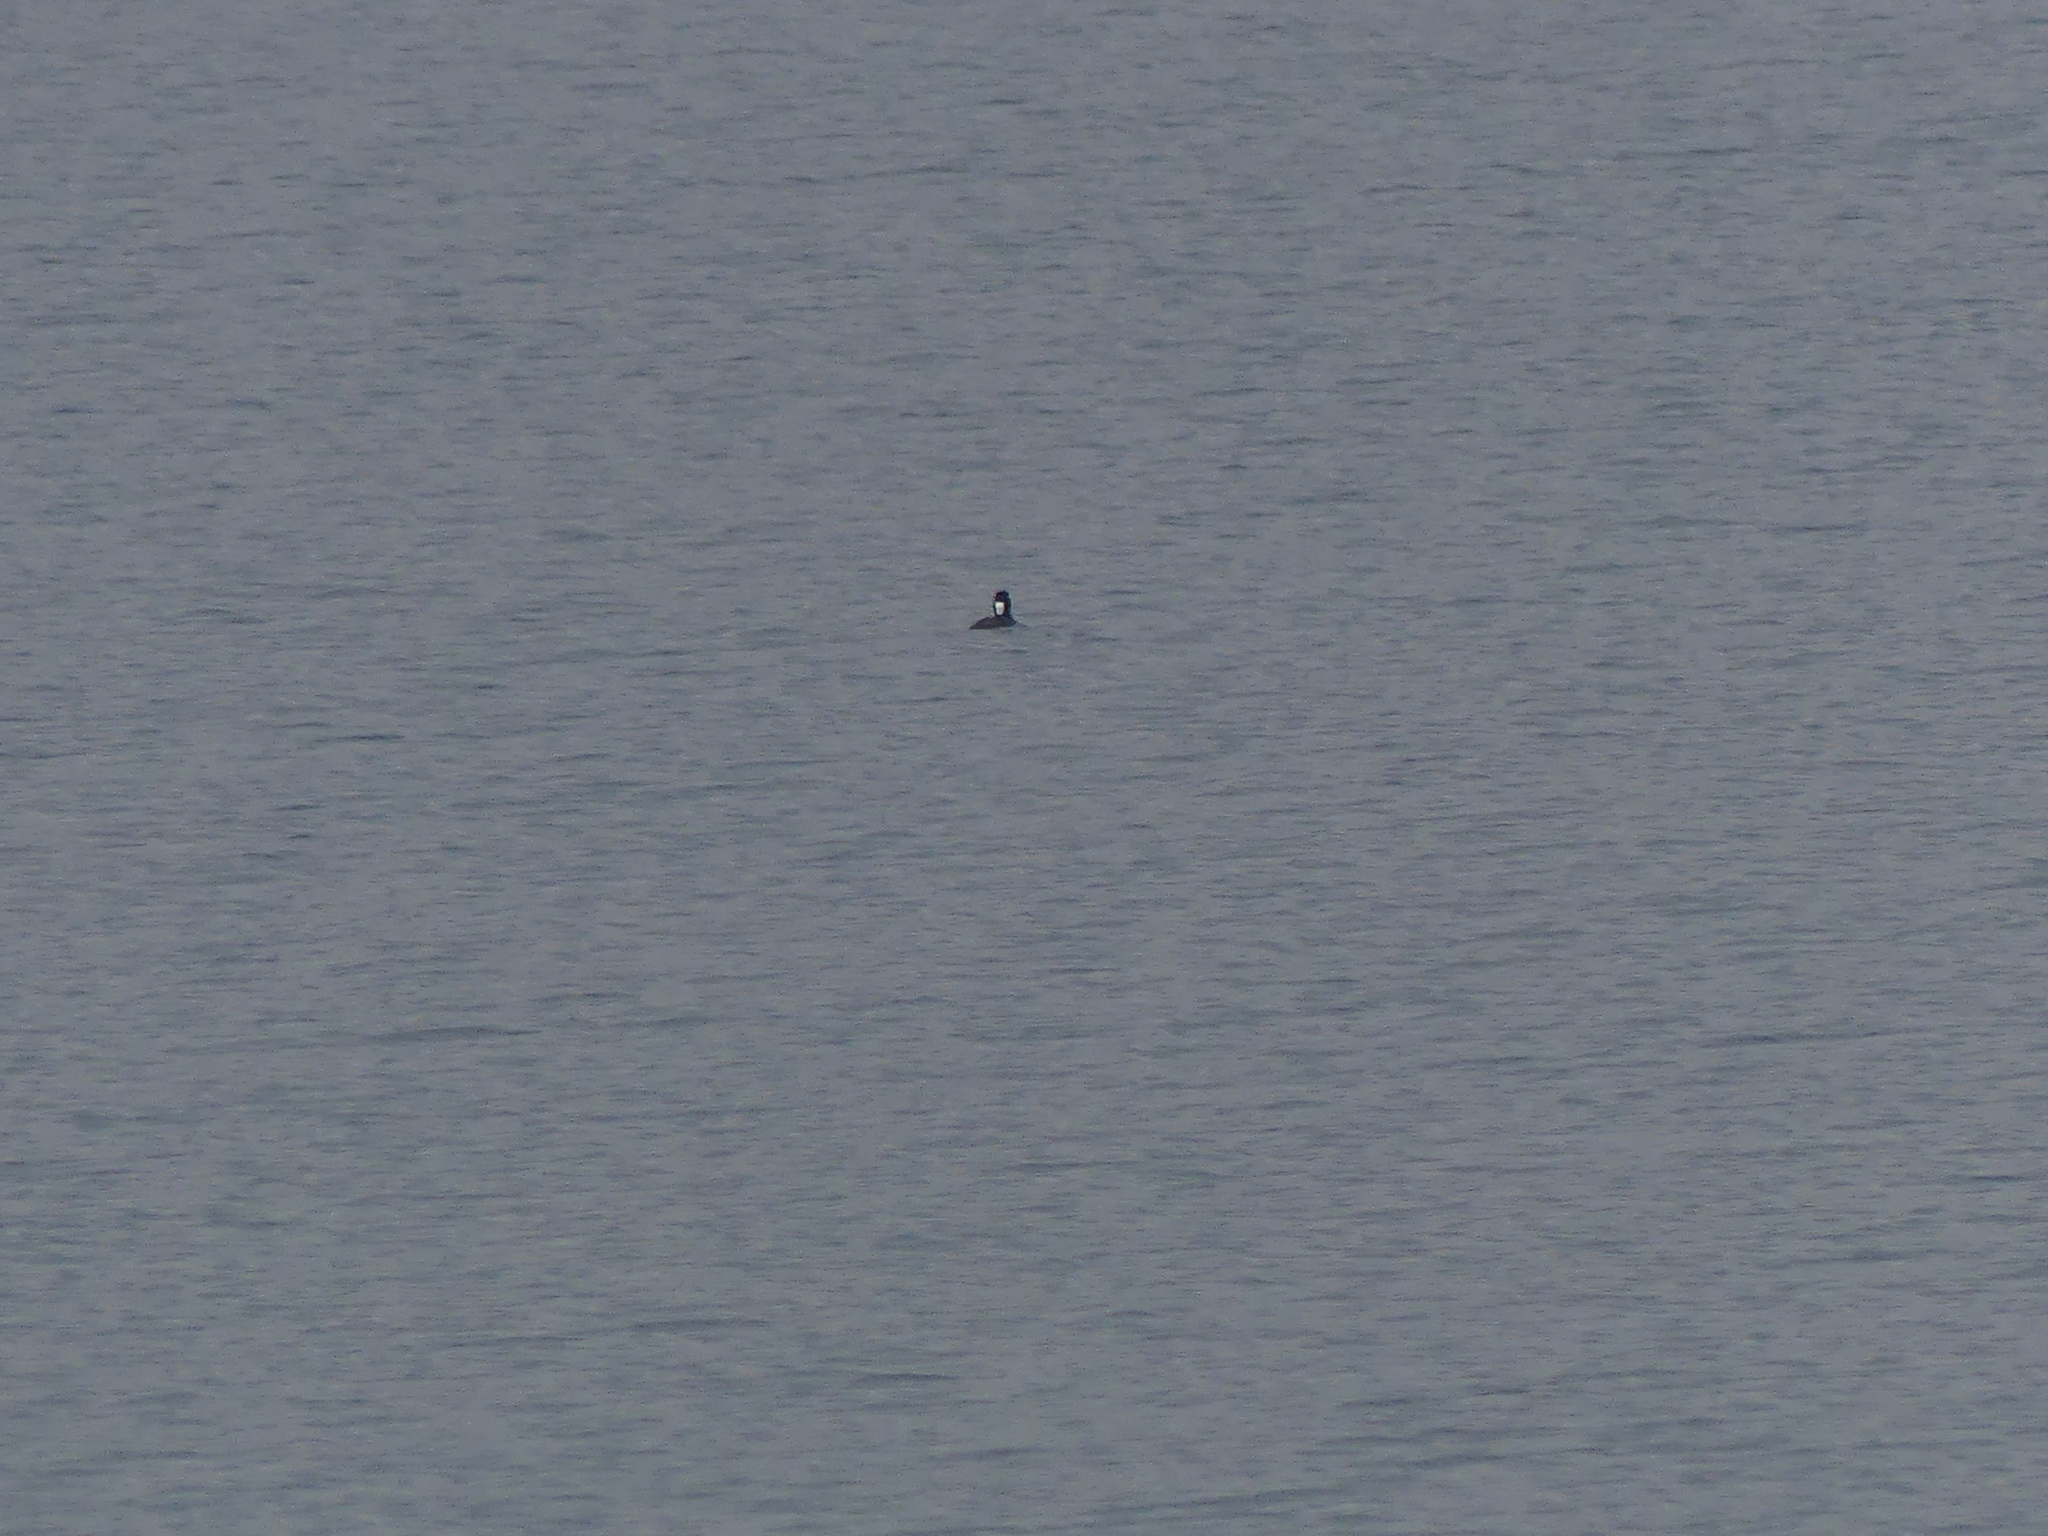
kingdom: Animalia
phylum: Chordata
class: Aves
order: Anseriformes
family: Anatidae
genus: Melanitta
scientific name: Melanitta perspicillata
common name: Surf scoter
